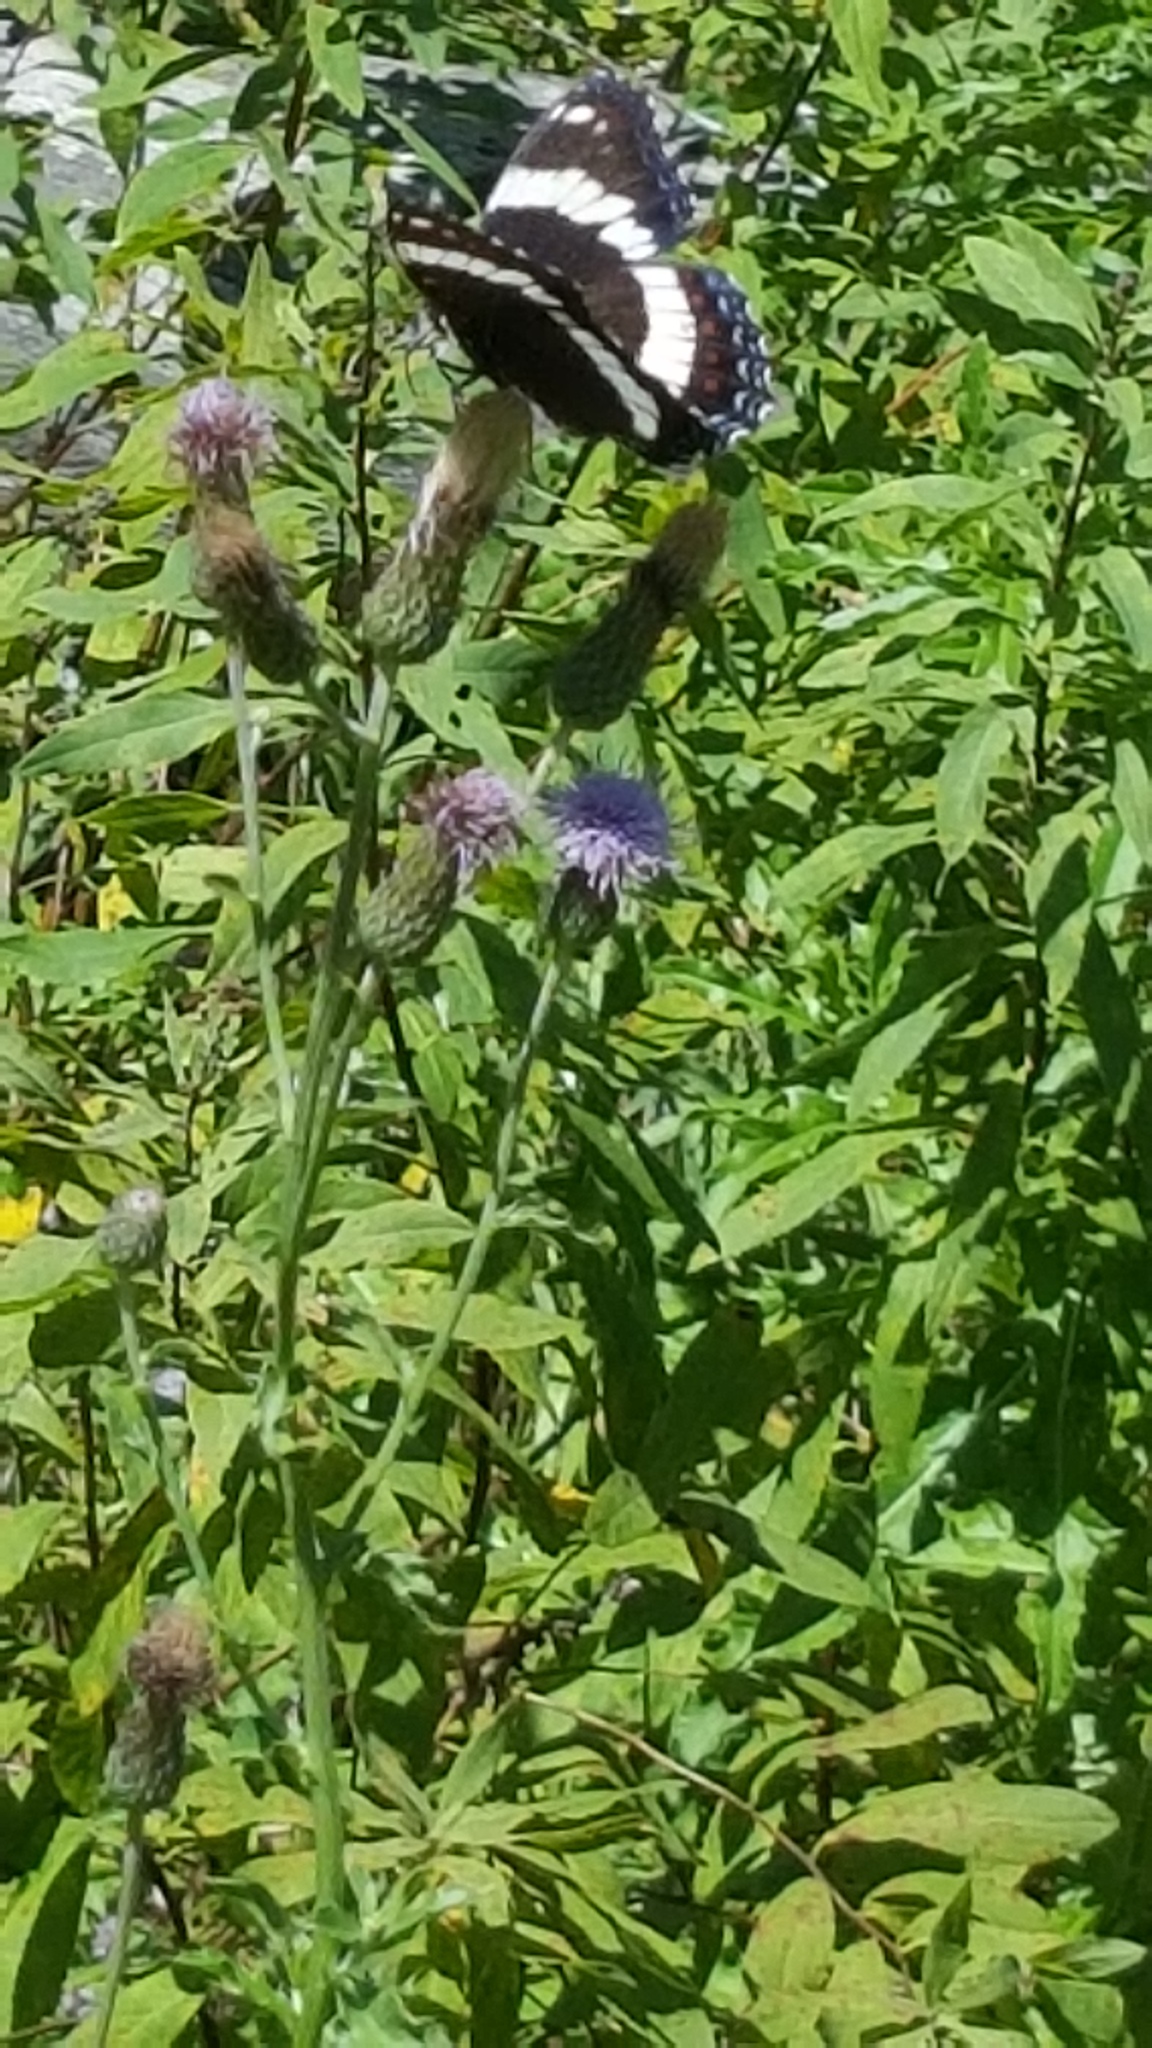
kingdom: Animalia
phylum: Arthropoda
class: Insecta
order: Lepidoptera
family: Nymphalidae
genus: Limenitis
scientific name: Limenitis arthemis
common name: Red-spotted admiral
